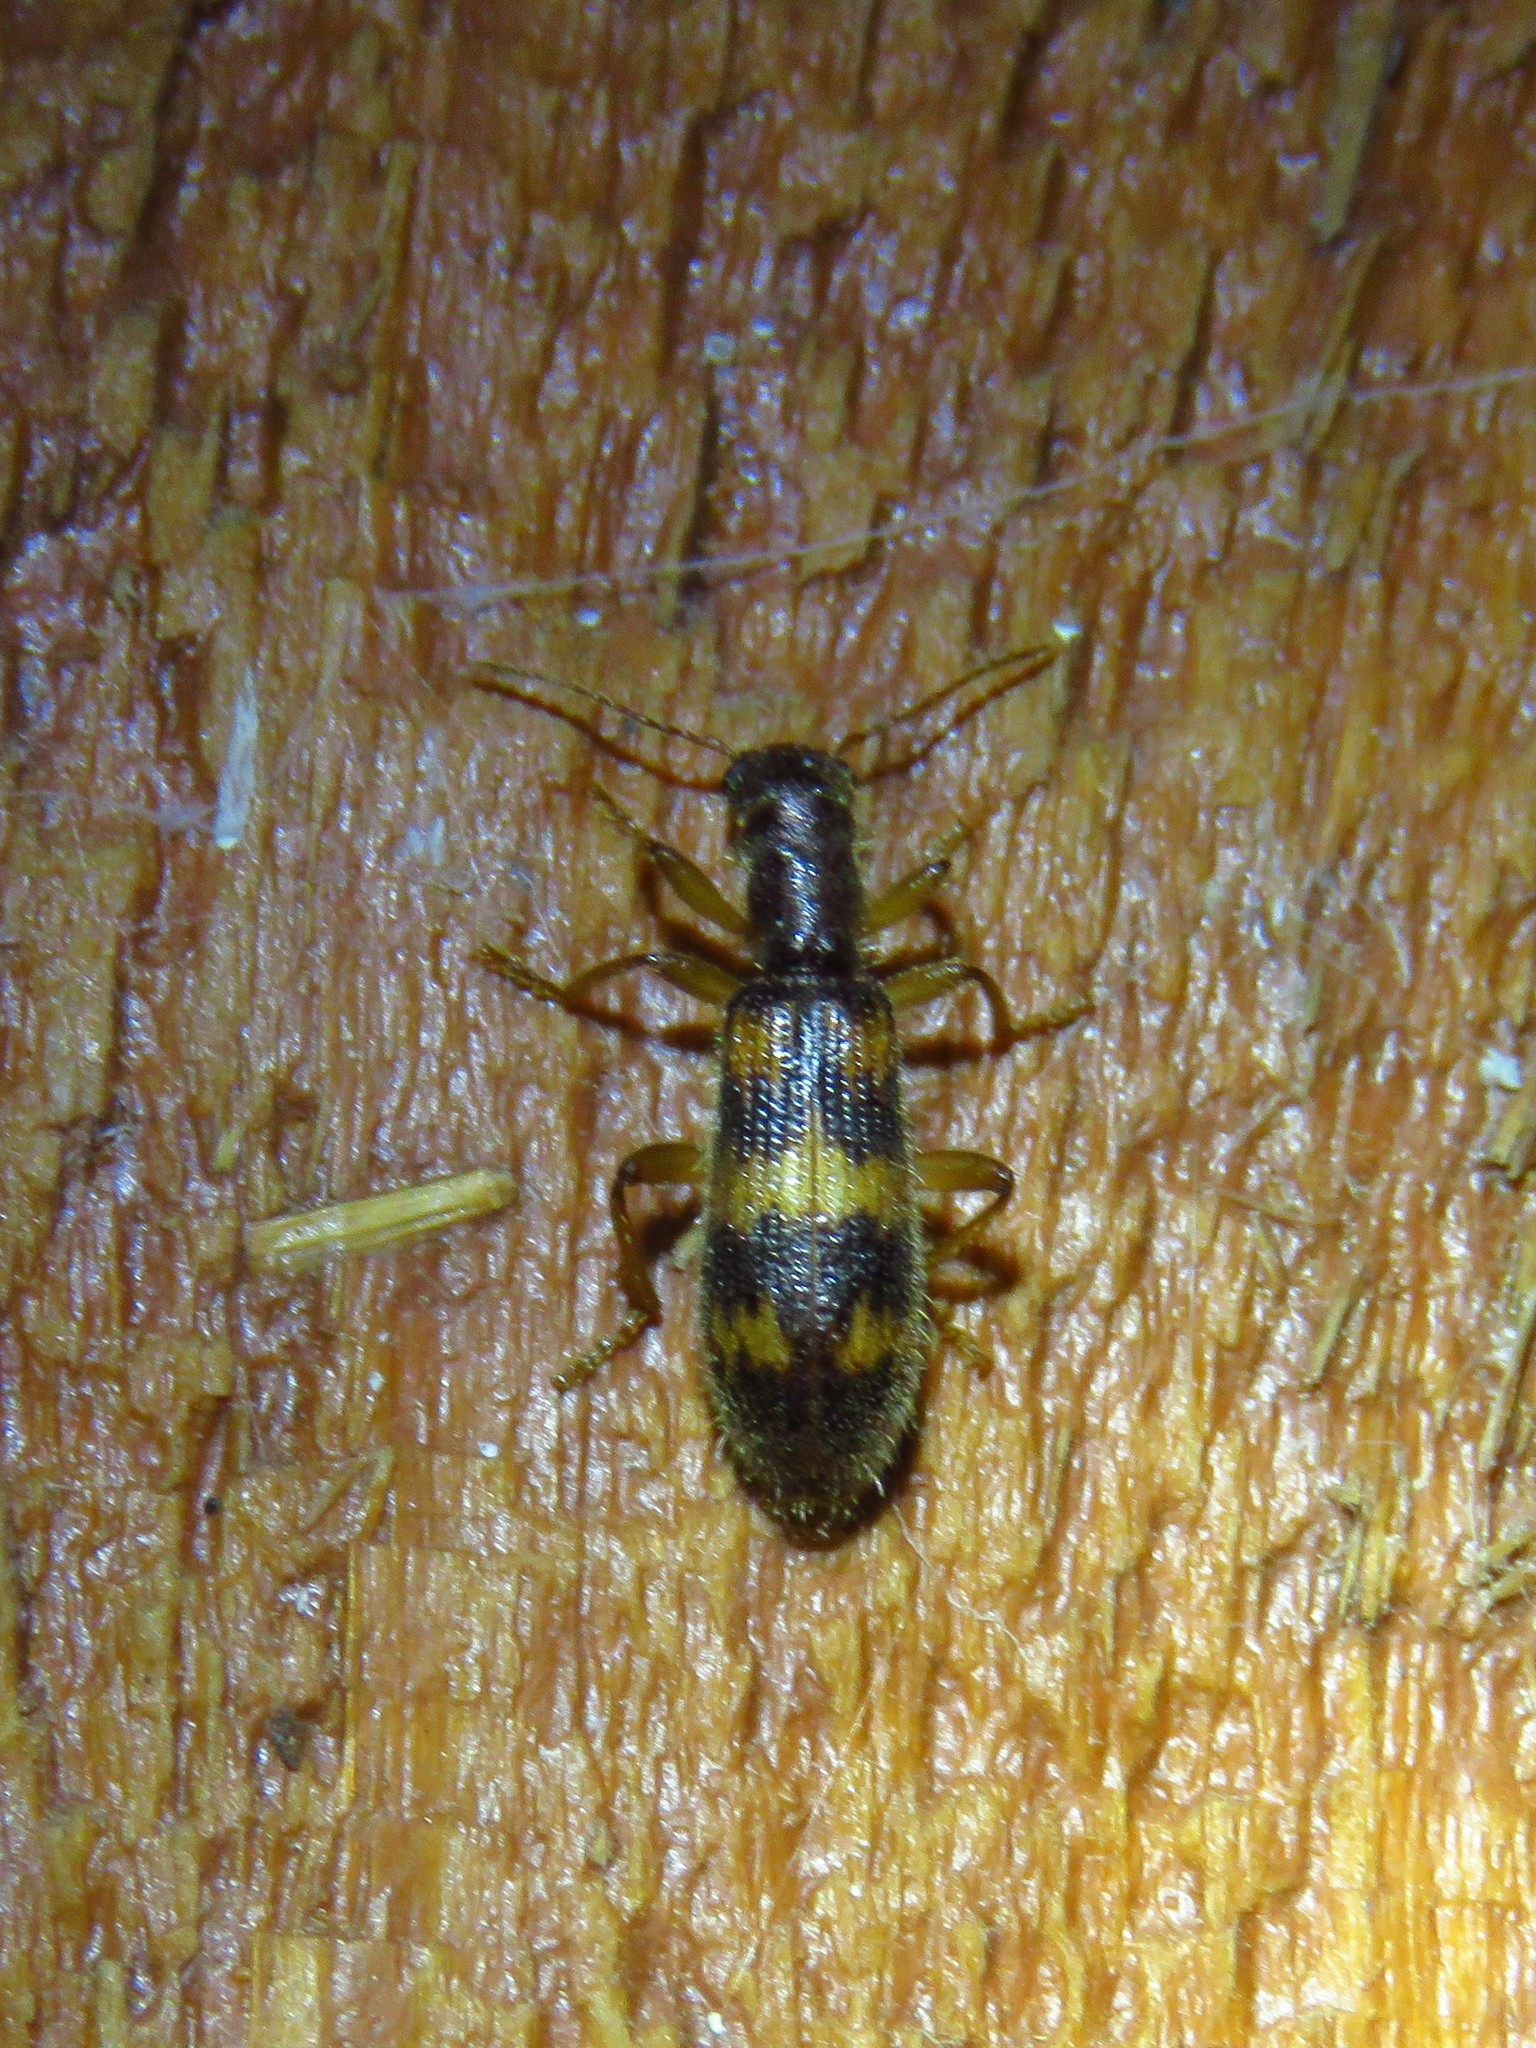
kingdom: Animalia
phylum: Arthropoda
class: Insecta
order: Coleoptera
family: Cleridae
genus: Cymatodera
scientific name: Cymatodera undulata
